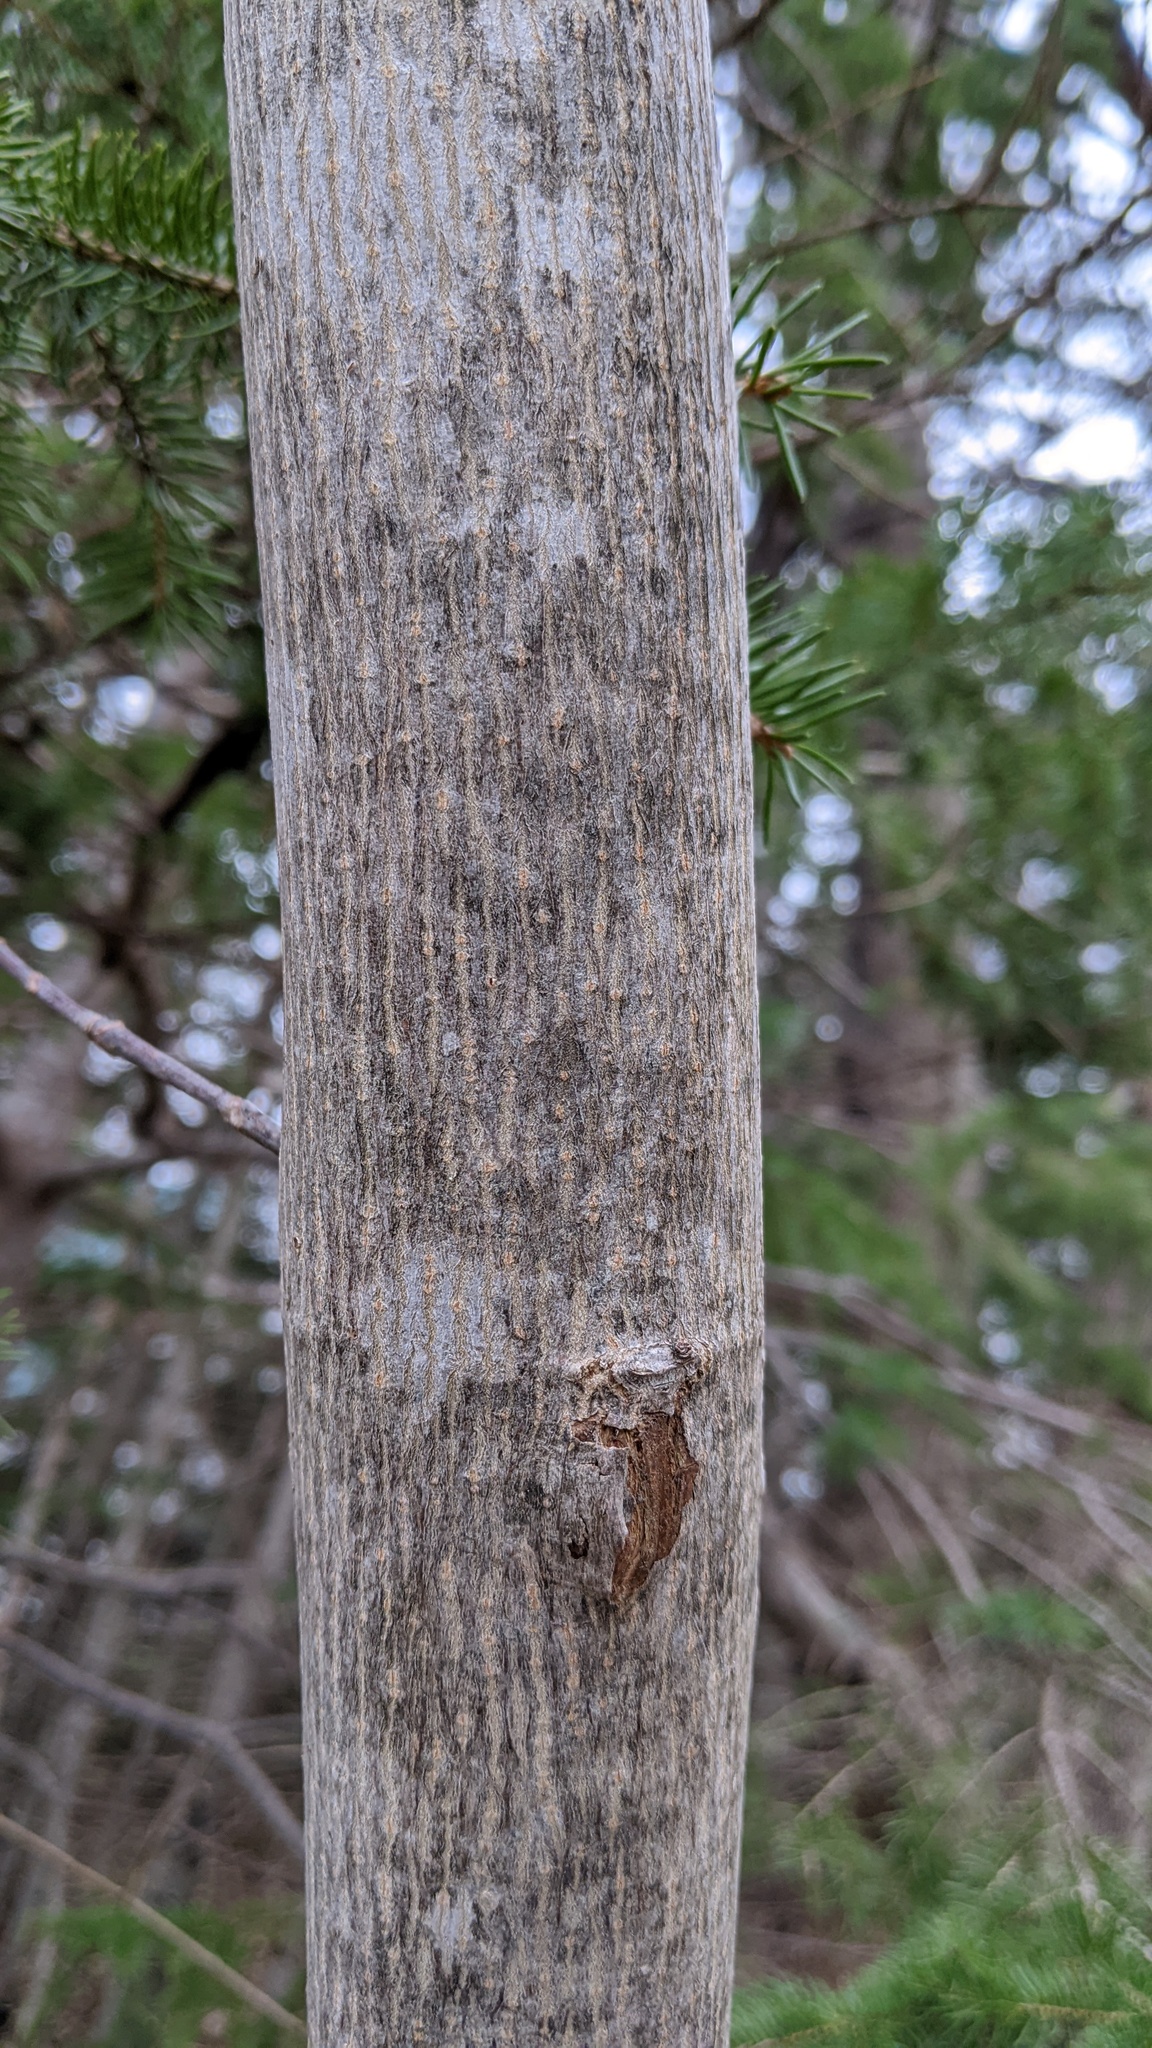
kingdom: Plantae
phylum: Tracheophyta
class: Magnoliopsida
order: Sapindales
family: Sapindaceae
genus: Acer
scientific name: Acer pensylvanicum
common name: Moosewood
